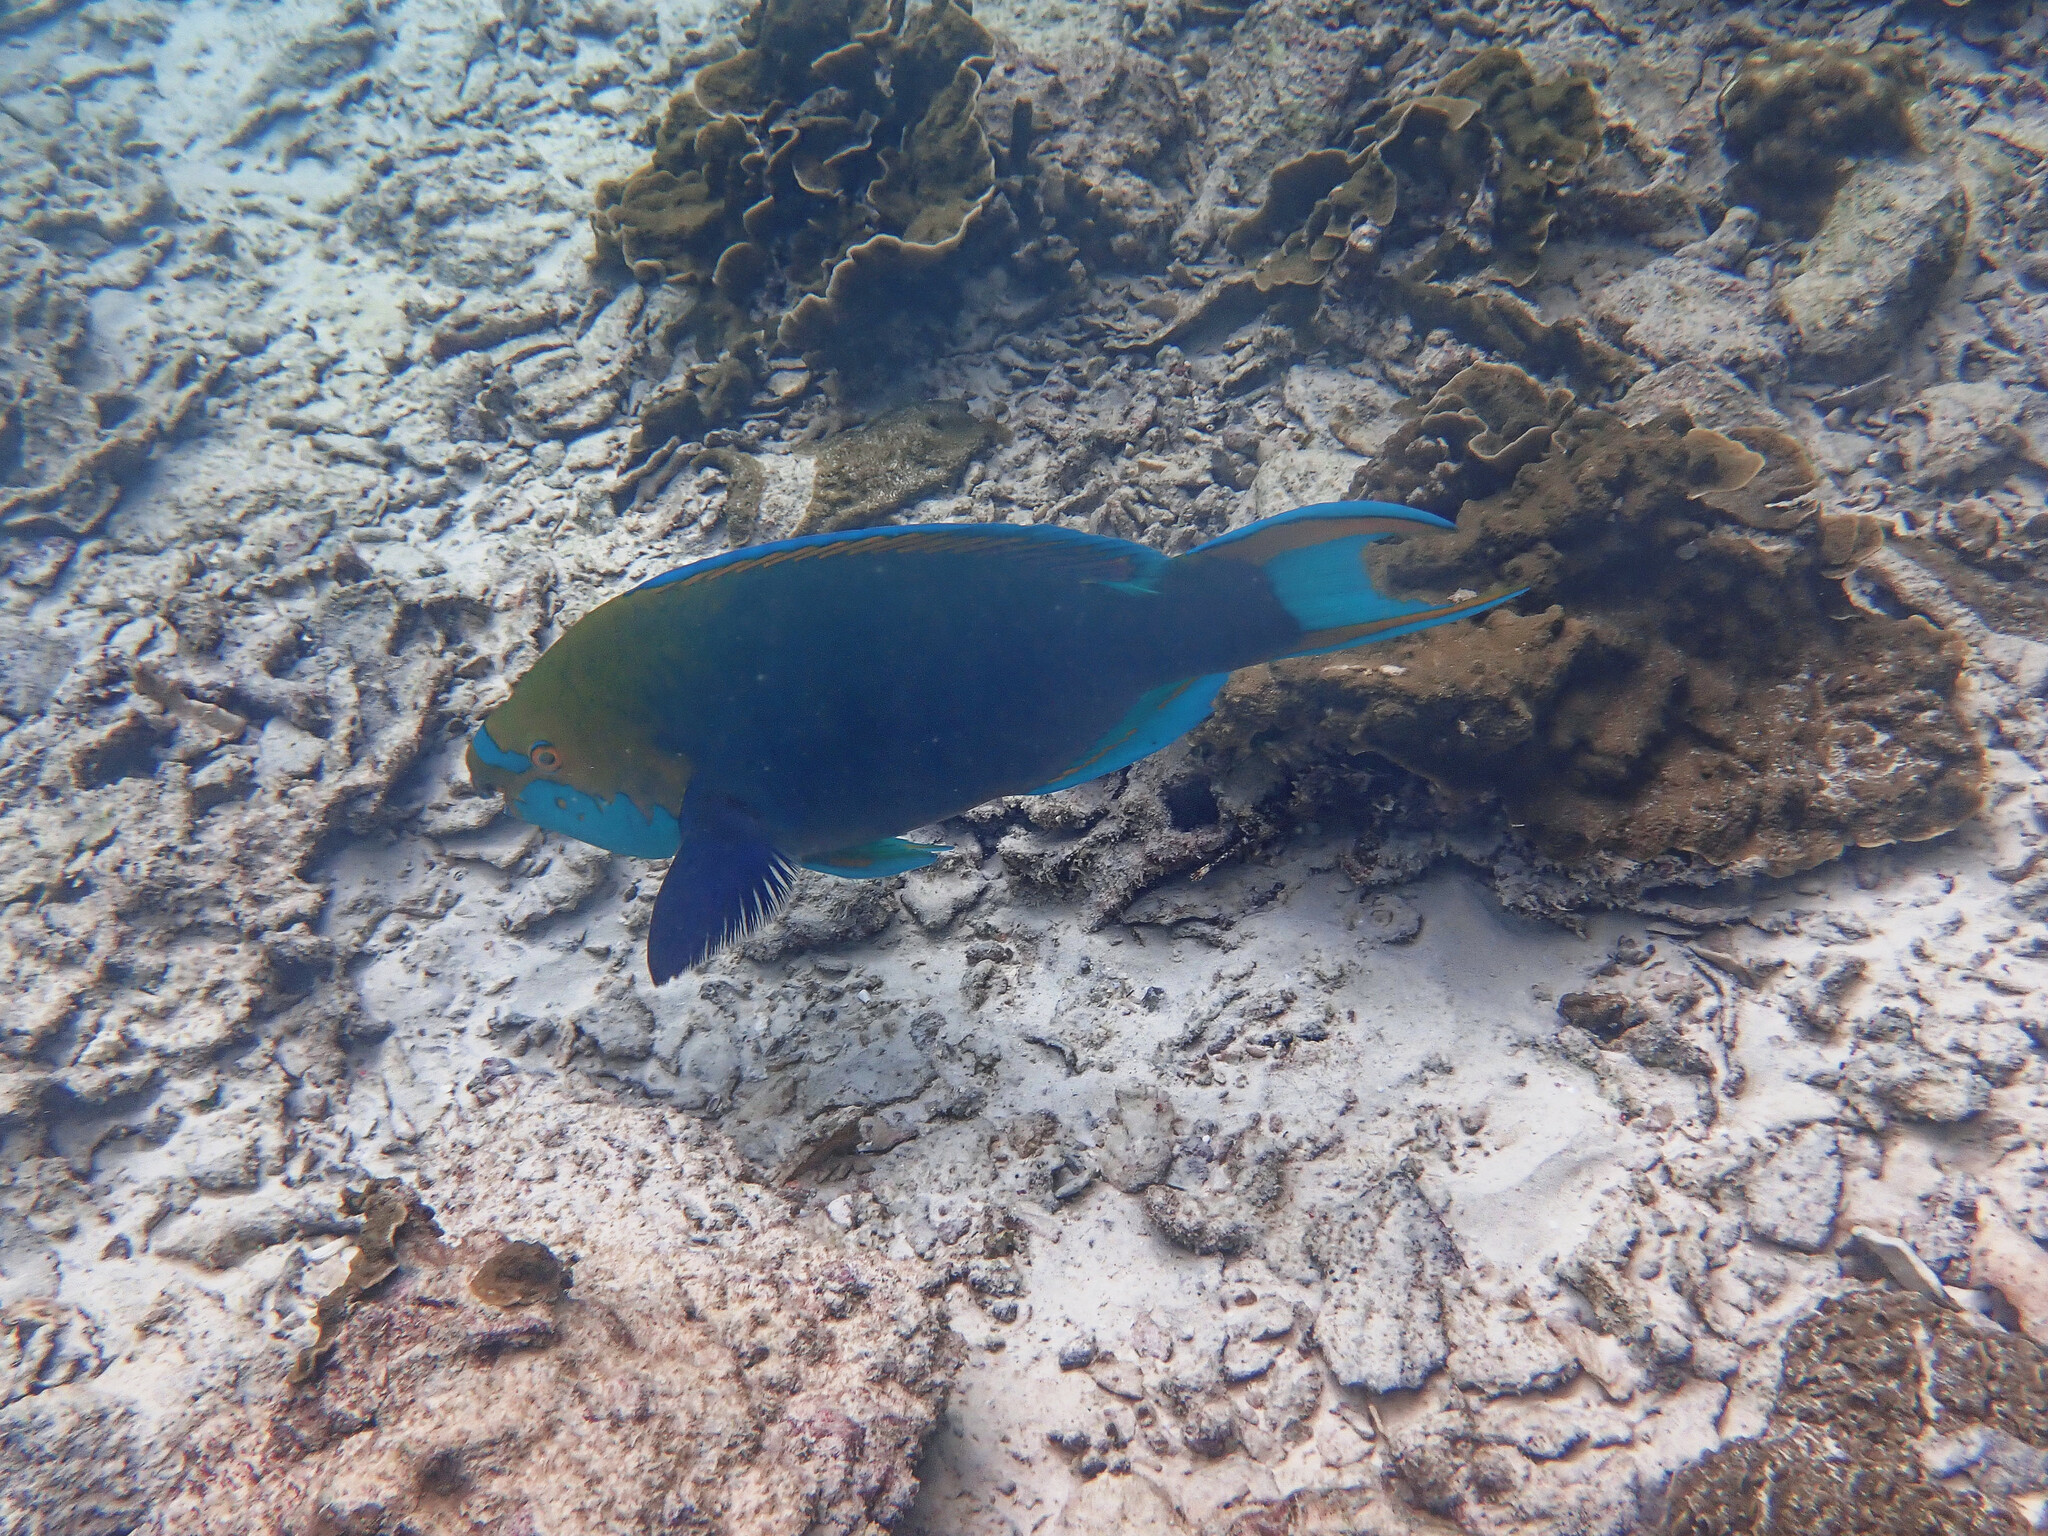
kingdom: Animalia
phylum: Chordata
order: Perciformes
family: Scaridae
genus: Scarus
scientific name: Scarus prasiognathos
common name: Singapore parrotfish
